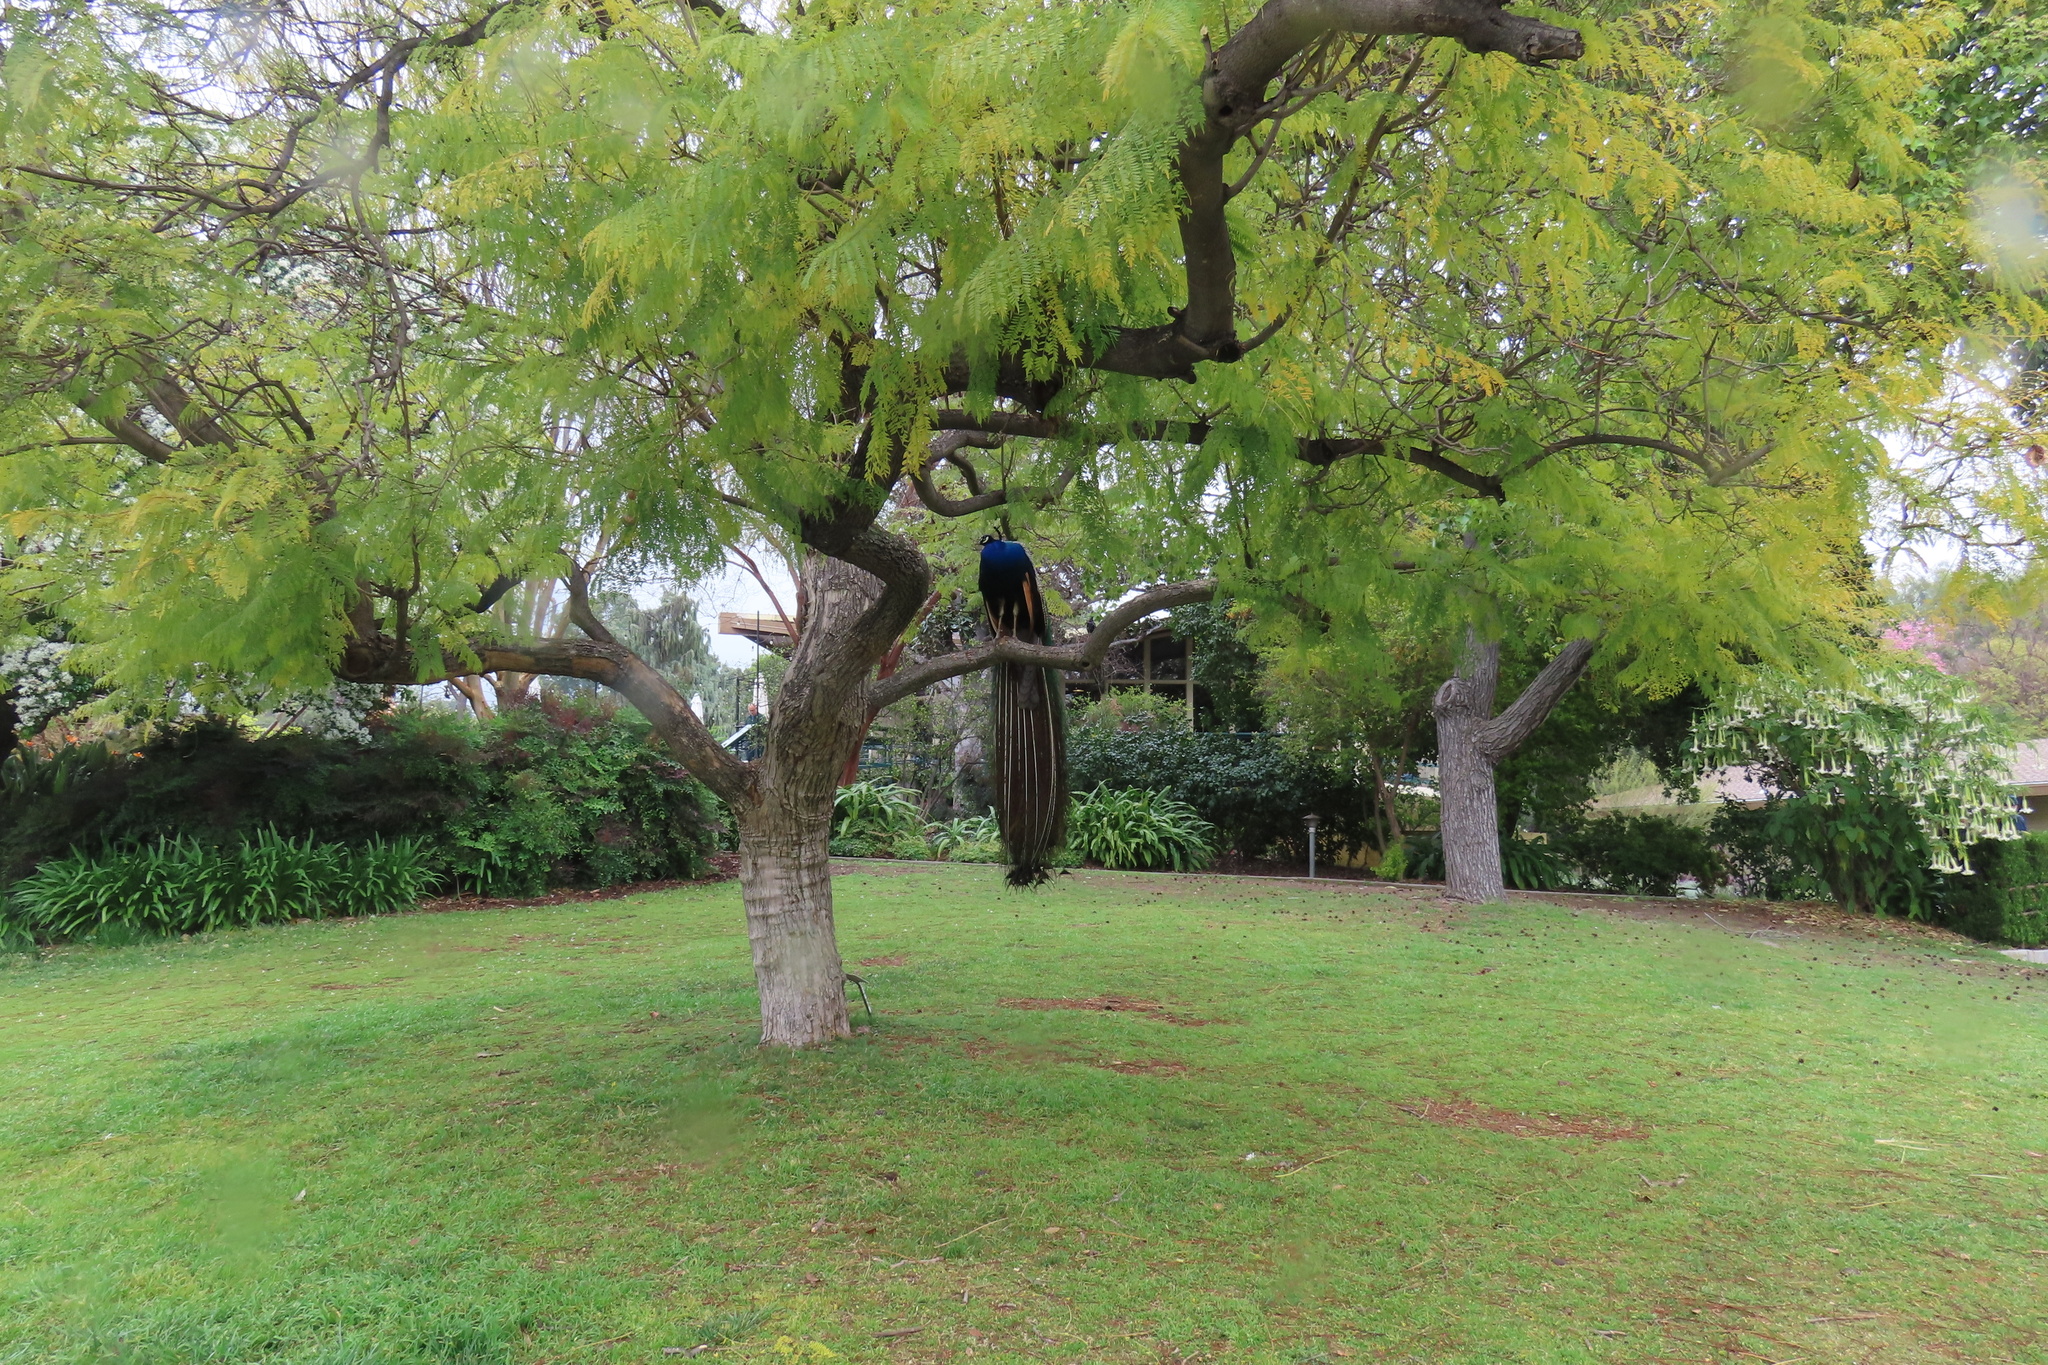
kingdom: Animalia
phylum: Chordata
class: Aves
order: Galliformes
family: Phasianidae
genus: Pavo
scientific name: Pavo cristatus
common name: Indian peafowl
